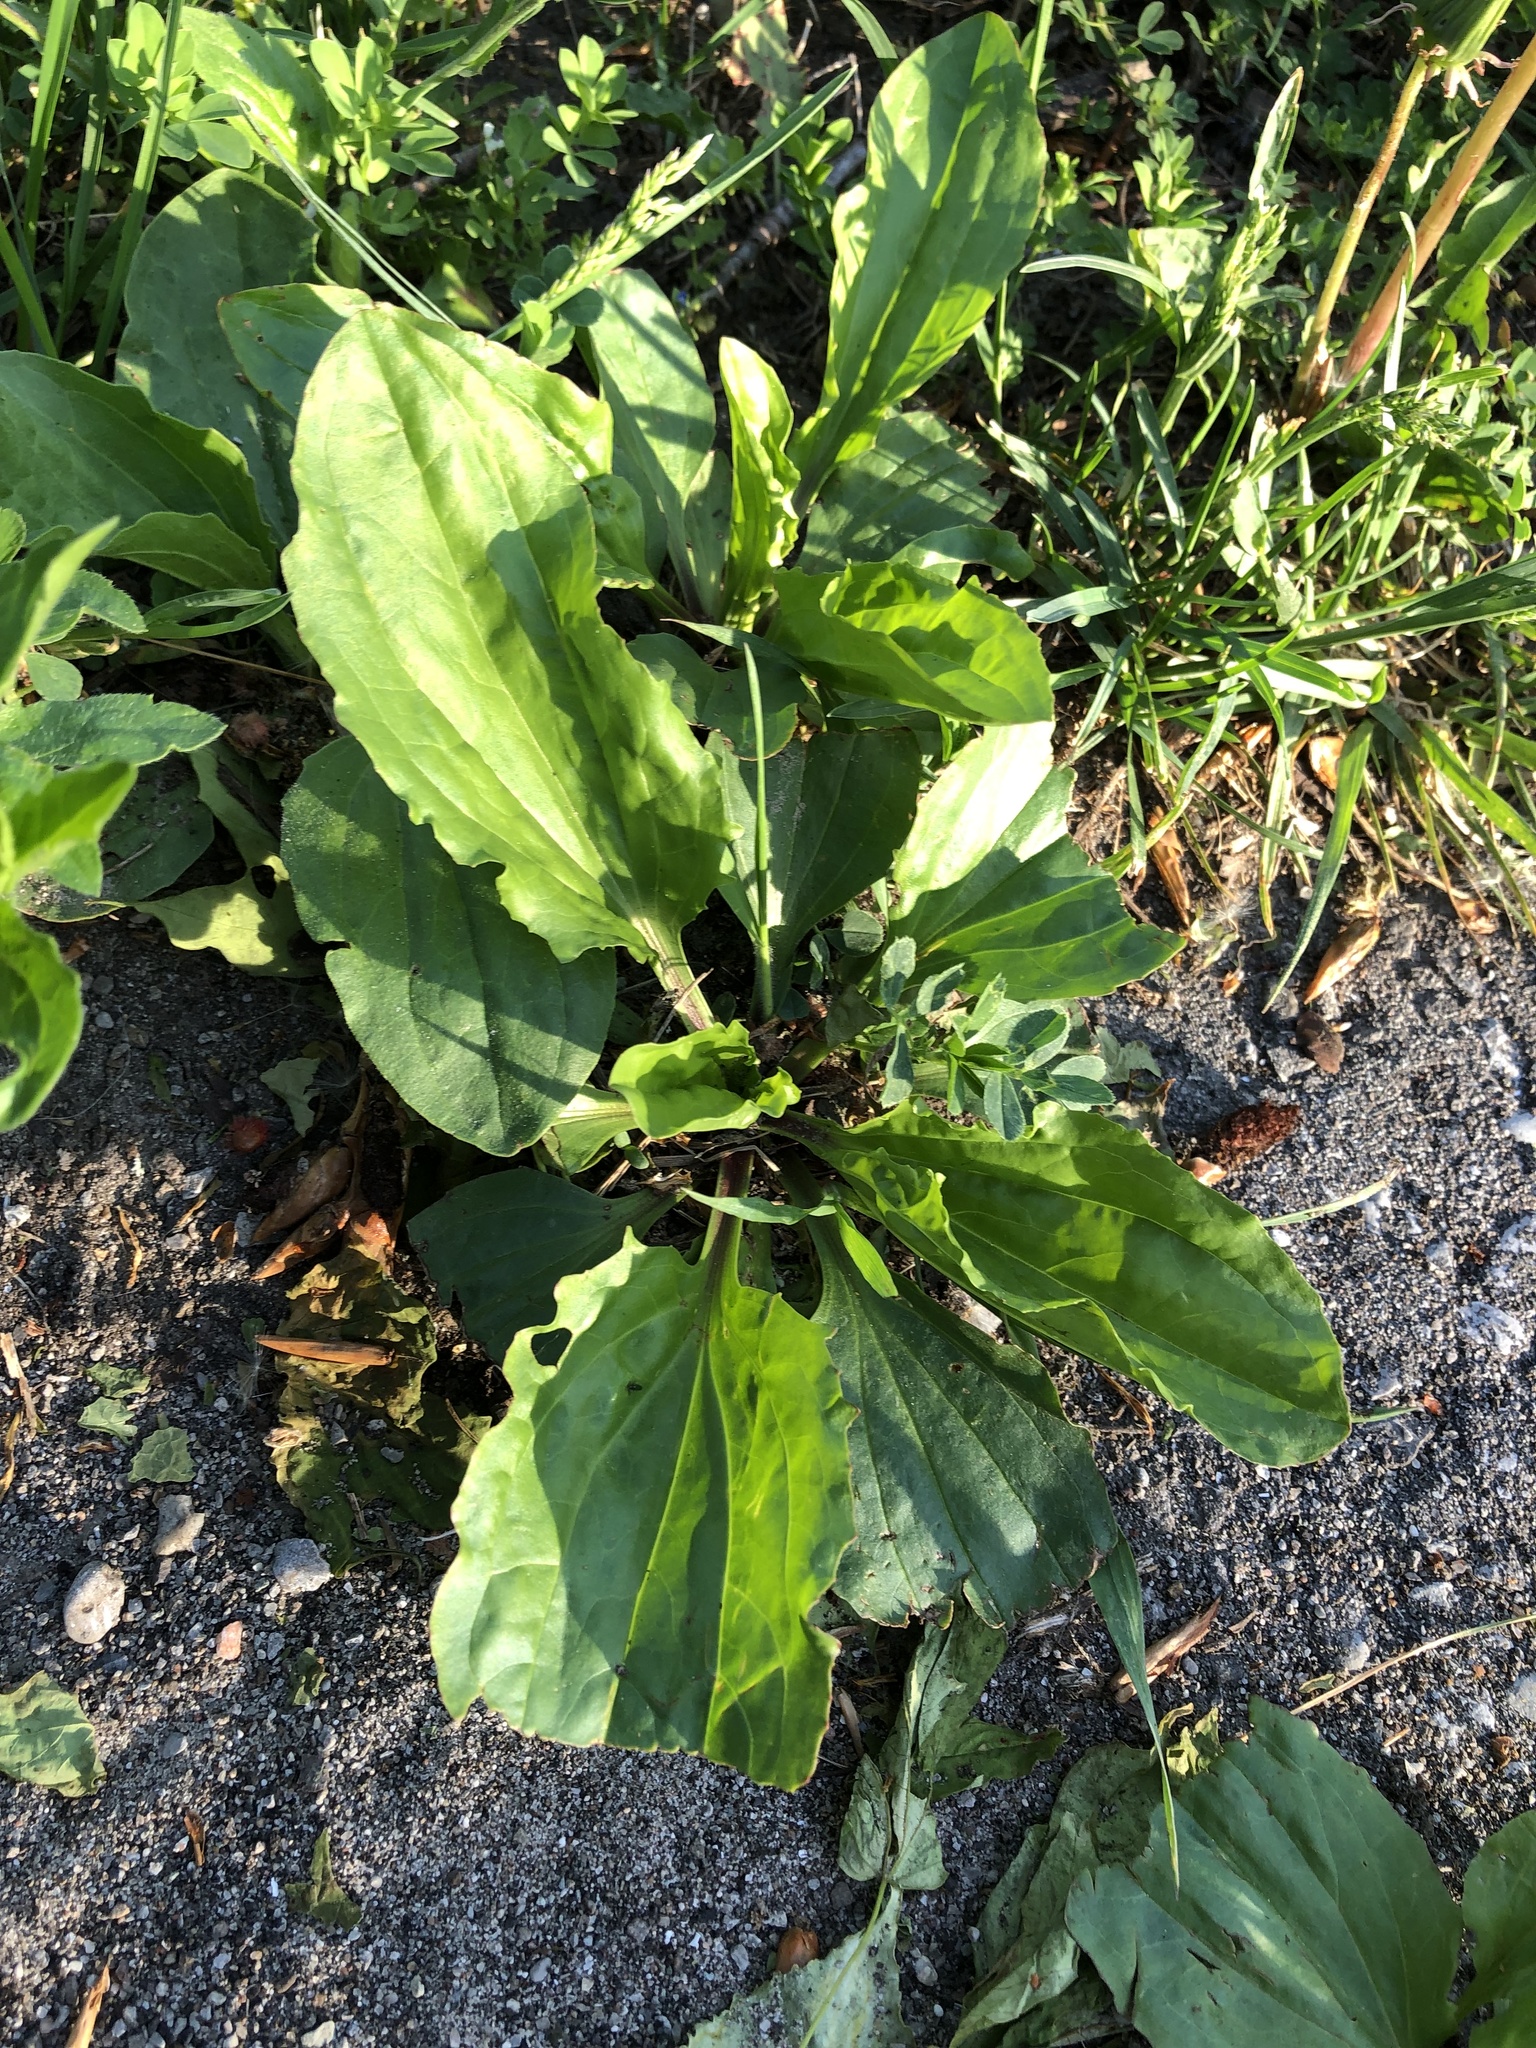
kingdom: Plantae
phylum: Tracheophyta
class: Magnoliopsida
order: Lamiales
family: Plantaginaceae
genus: Plantago
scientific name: Plantago rugelii
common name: American plantain
